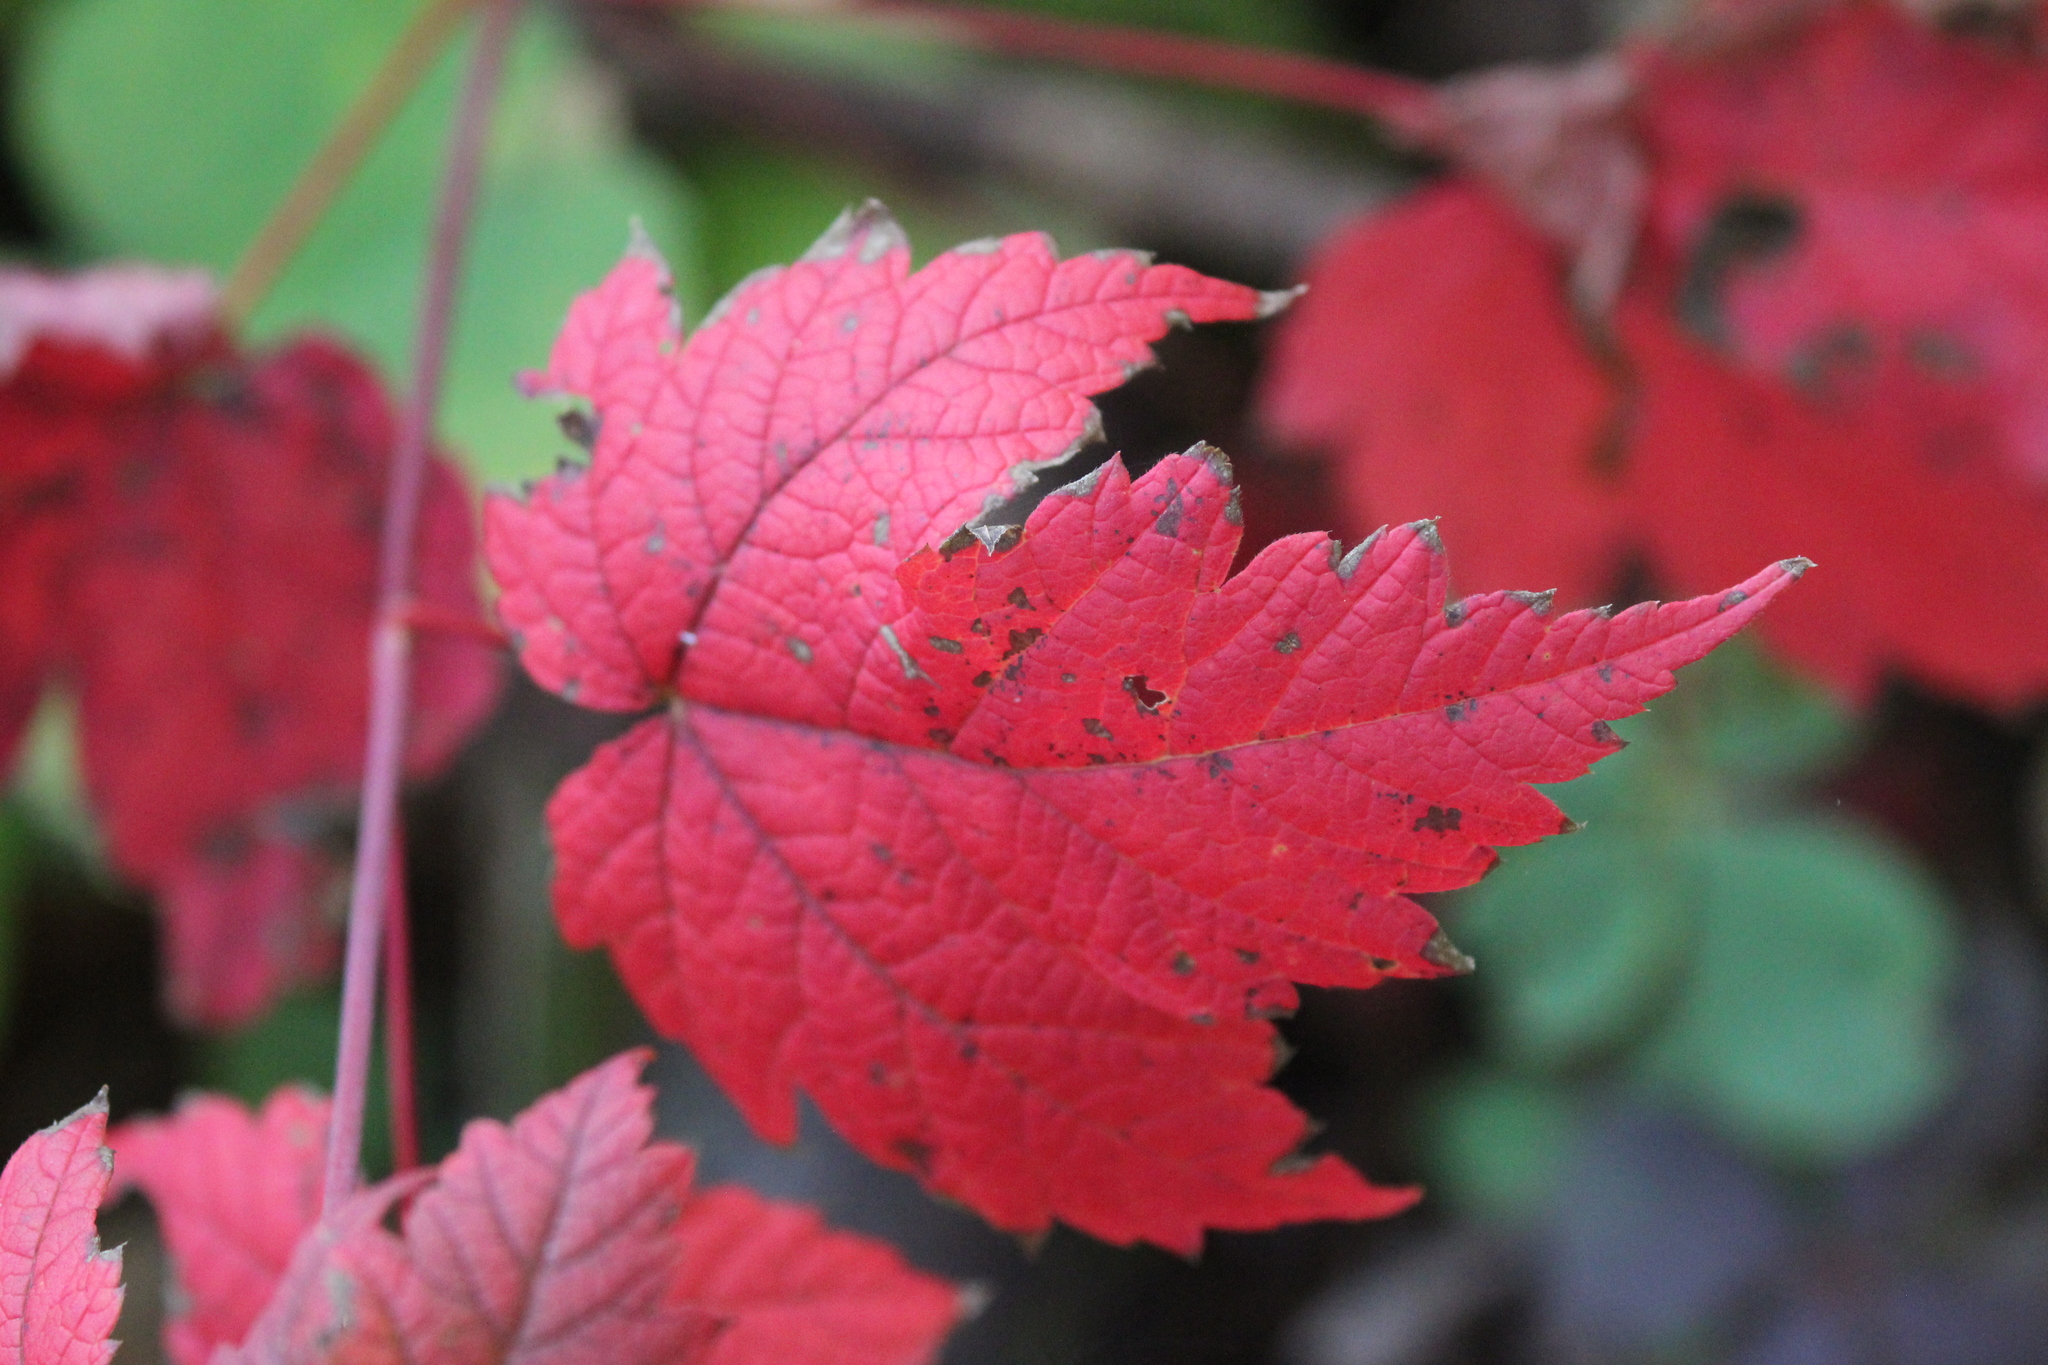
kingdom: Plantae
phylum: Tracheophyta
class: Magnoliopsida
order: Sapindales
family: Sapindaceae
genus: Acer
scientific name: Acer spicatum
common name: Mountain maple
